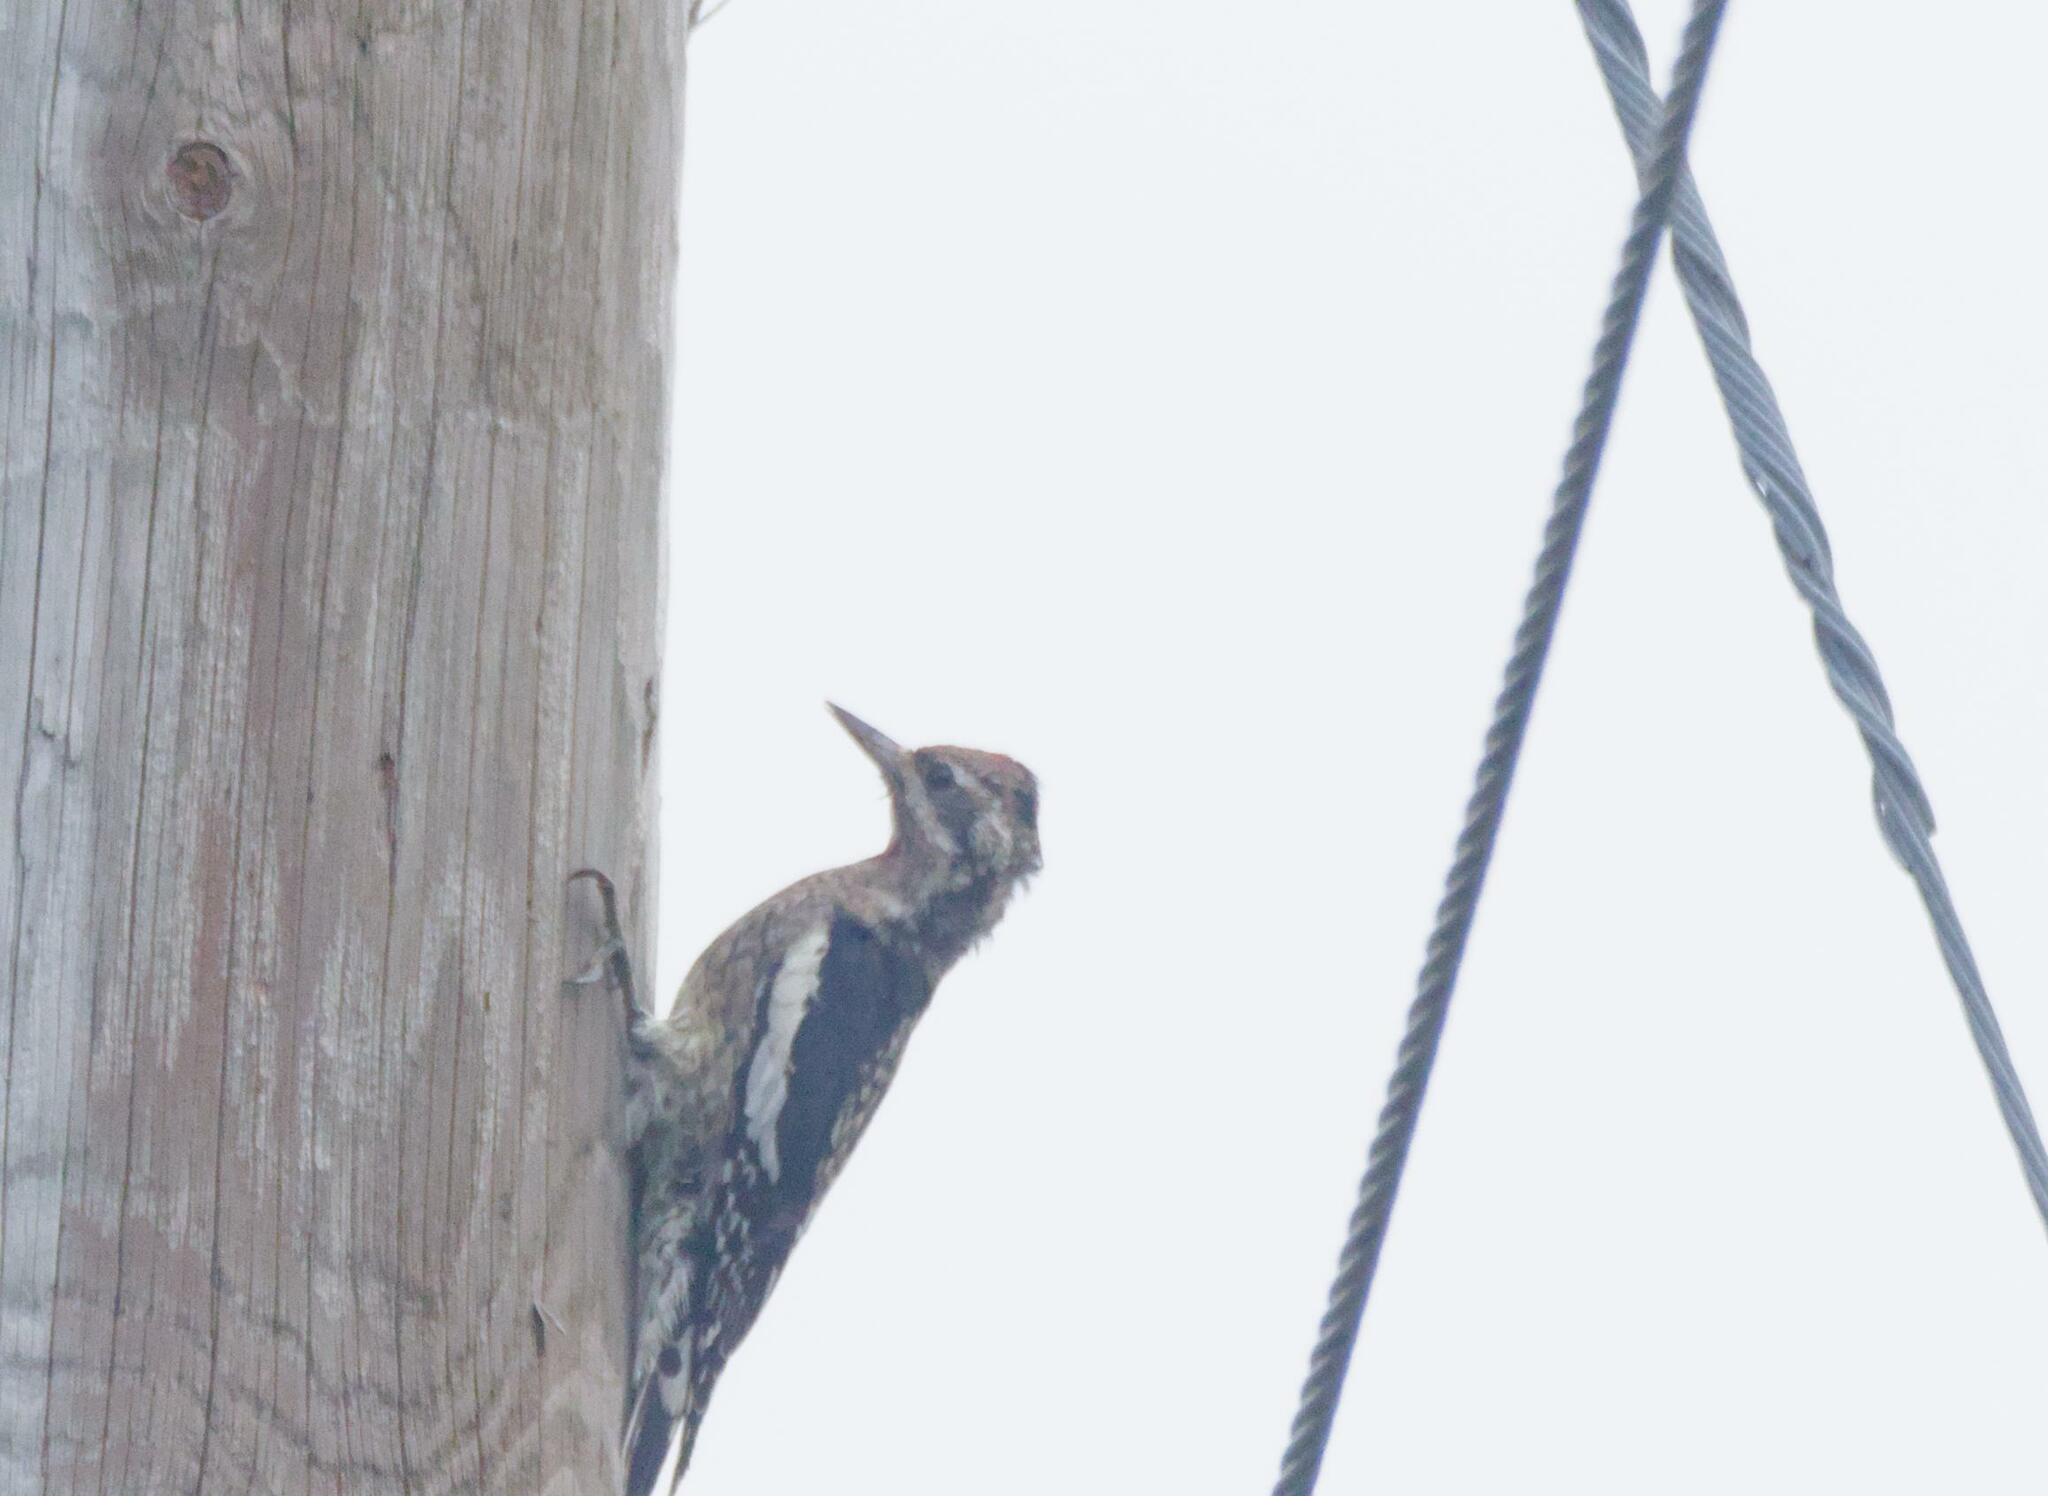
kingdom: Animalia
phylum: Chordata
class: Aves
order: Piciformes
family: Picidae
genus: Sphyrapicus
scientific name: Sphyrapicus varius
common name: Yellow-bellied sapsucker
